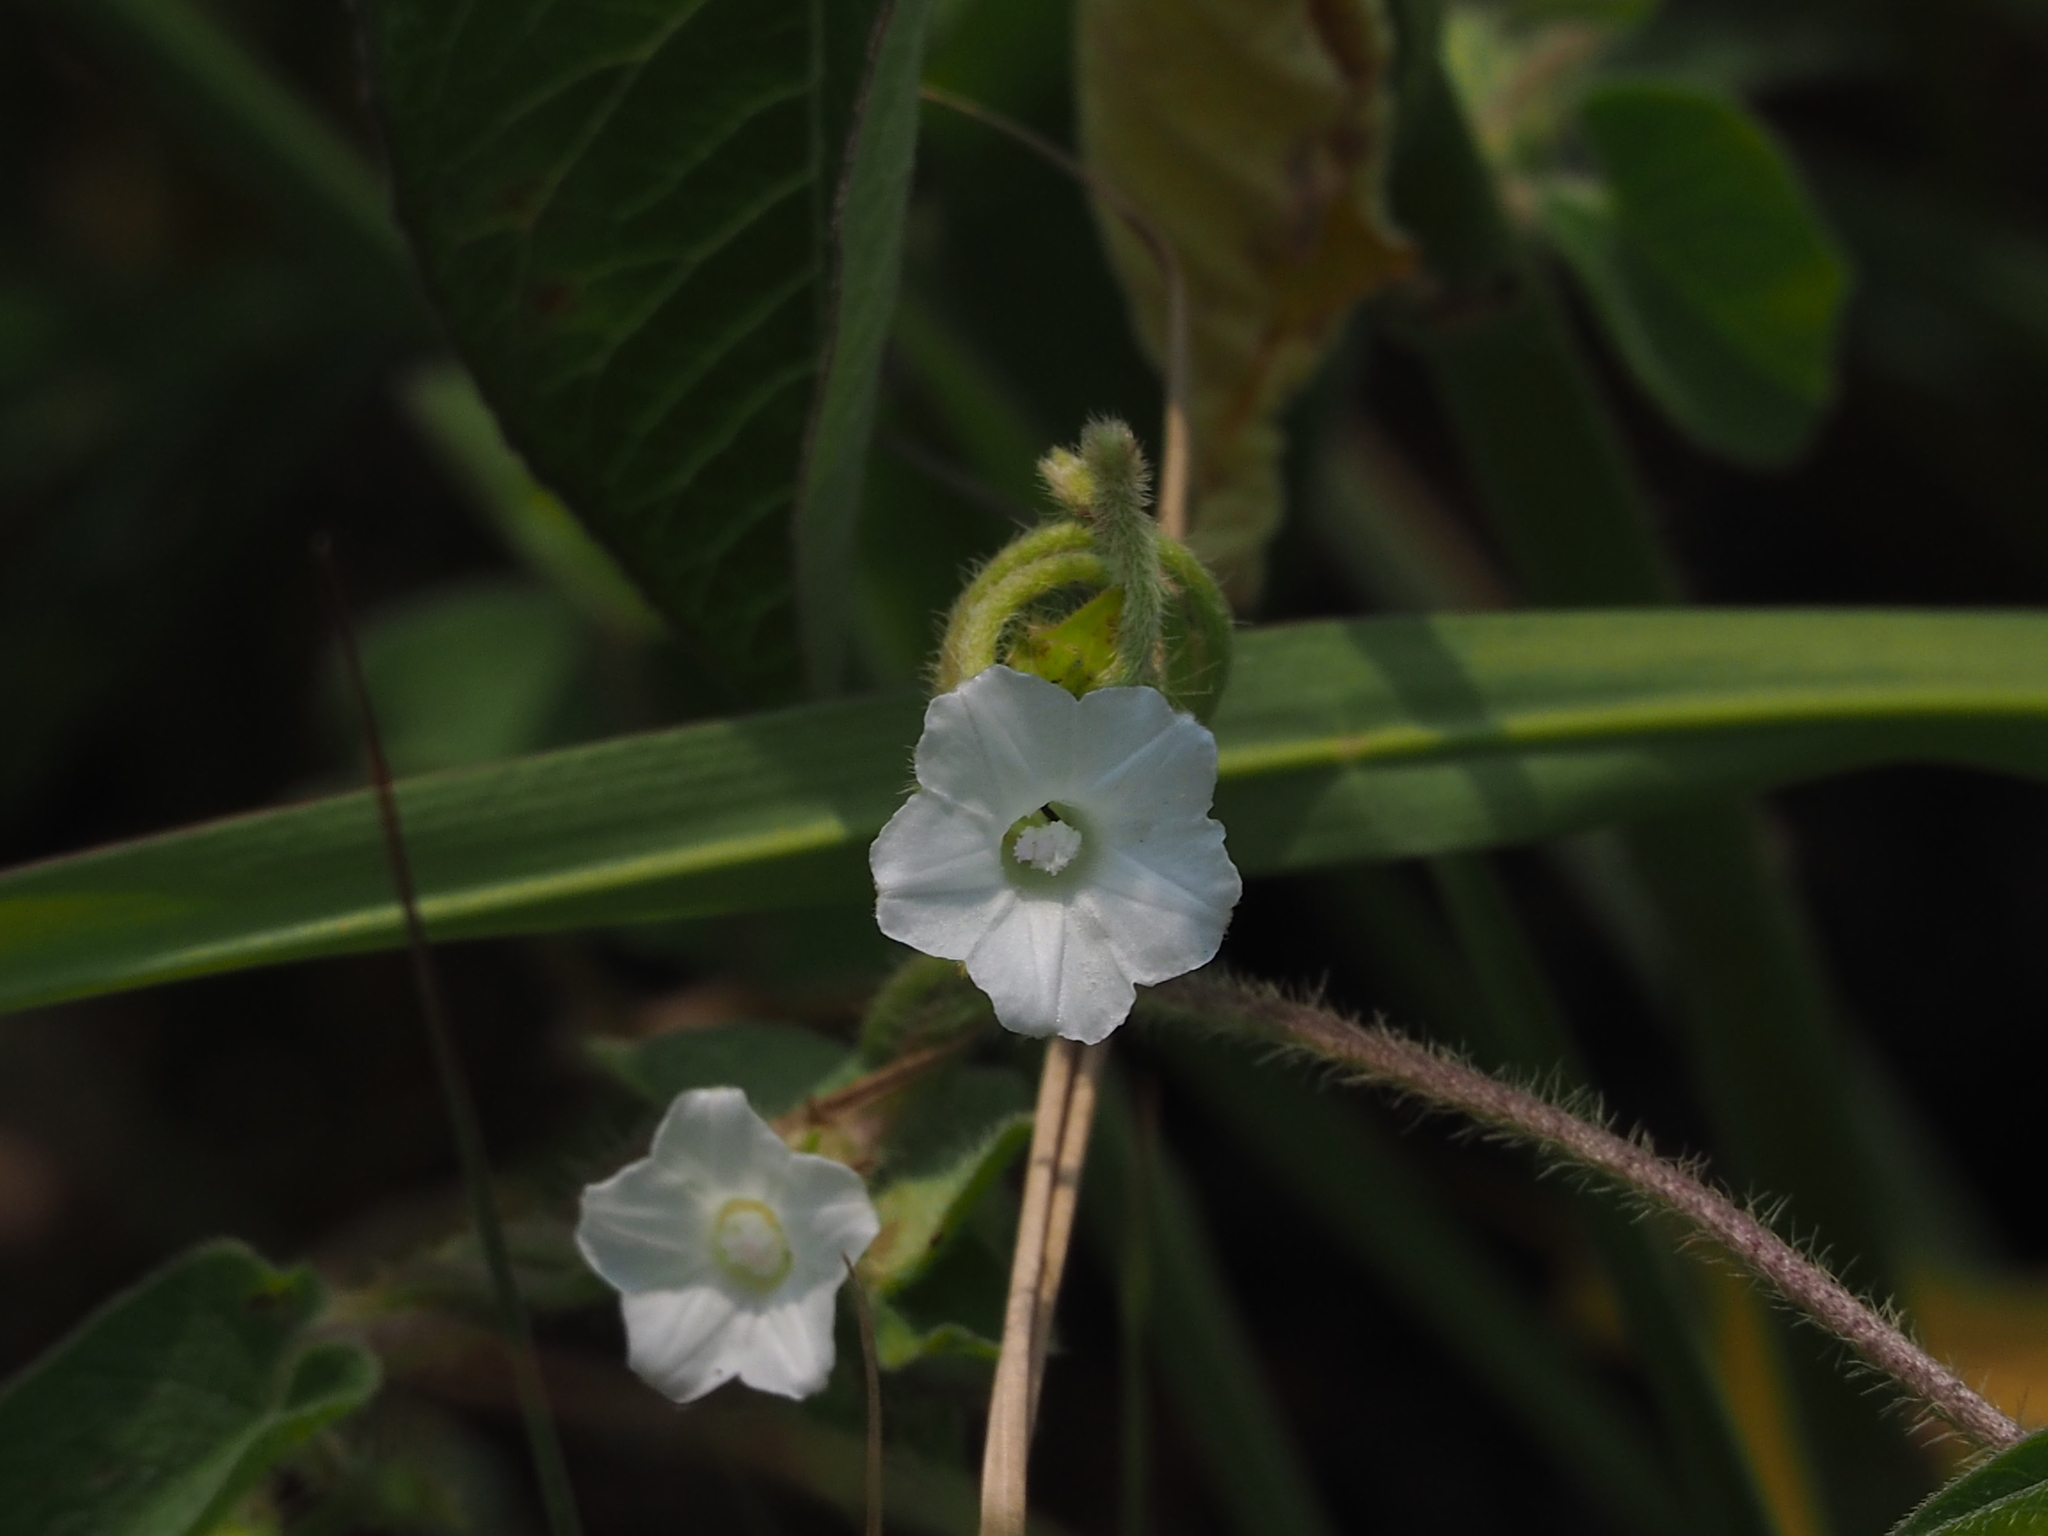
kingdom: Plantae
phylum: Tracheophyta
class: Magnoliopsida
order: Solanales
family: Convolvulaceae
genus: Ipomoea
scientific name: Ipomoea biflora
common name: Bellvine
